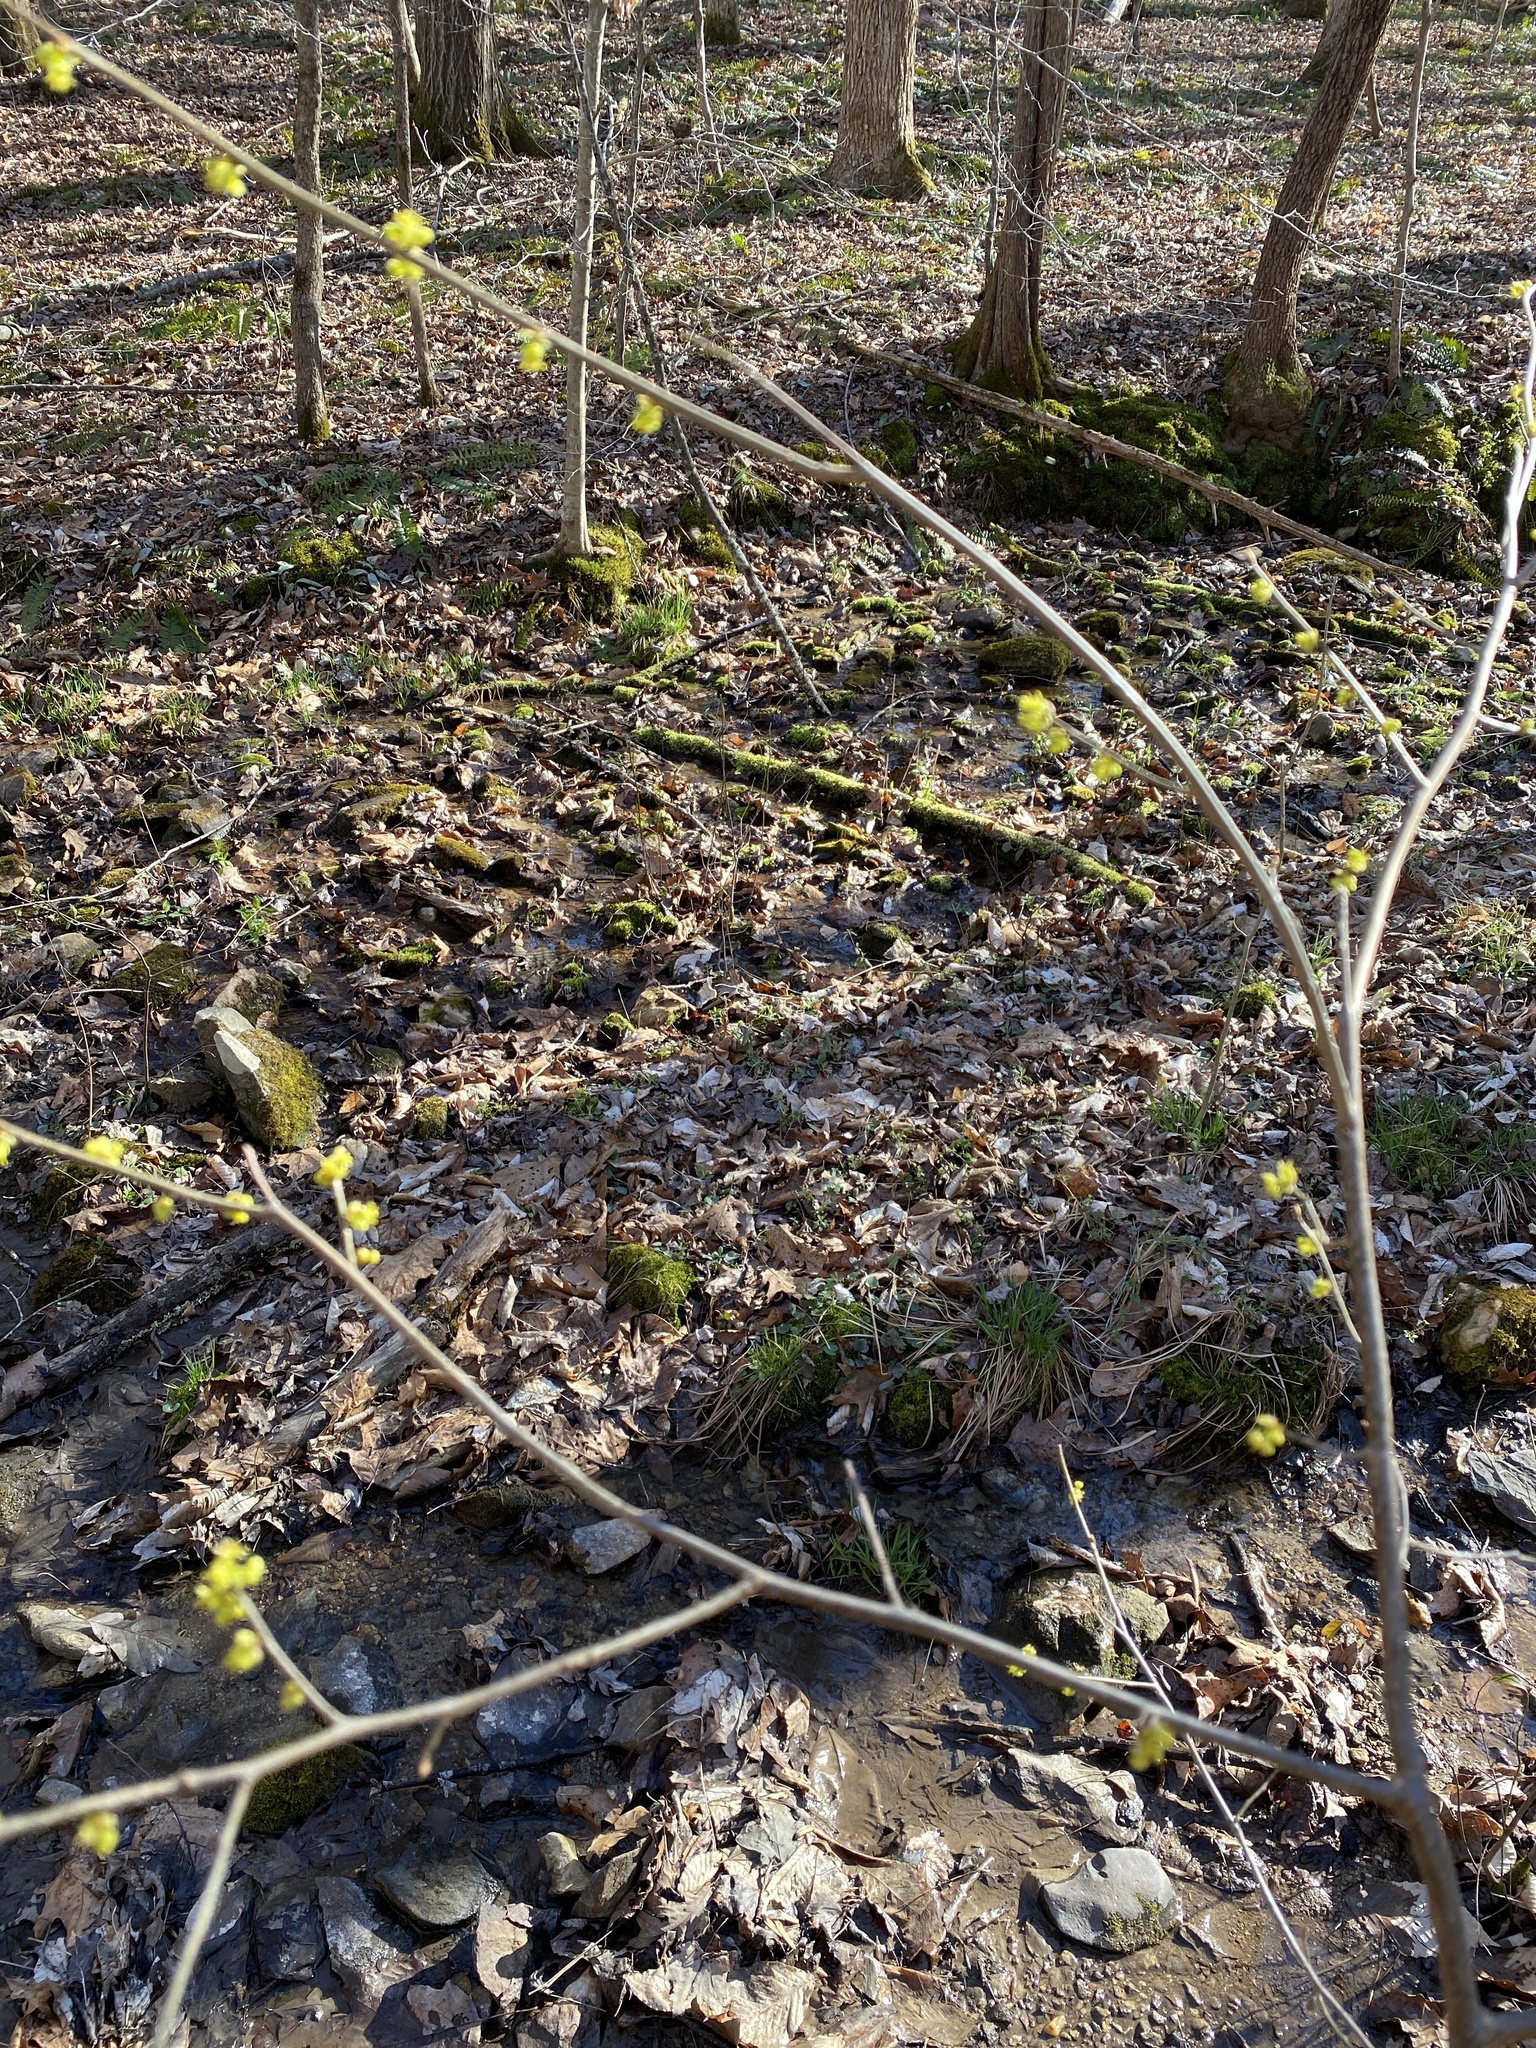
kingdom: Plantae
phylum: Tracheophyta
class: Magnoliopsida
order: Laurales
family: Lauraceae
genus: Lindera
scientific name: Lindera benzoin
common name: Spicebush
